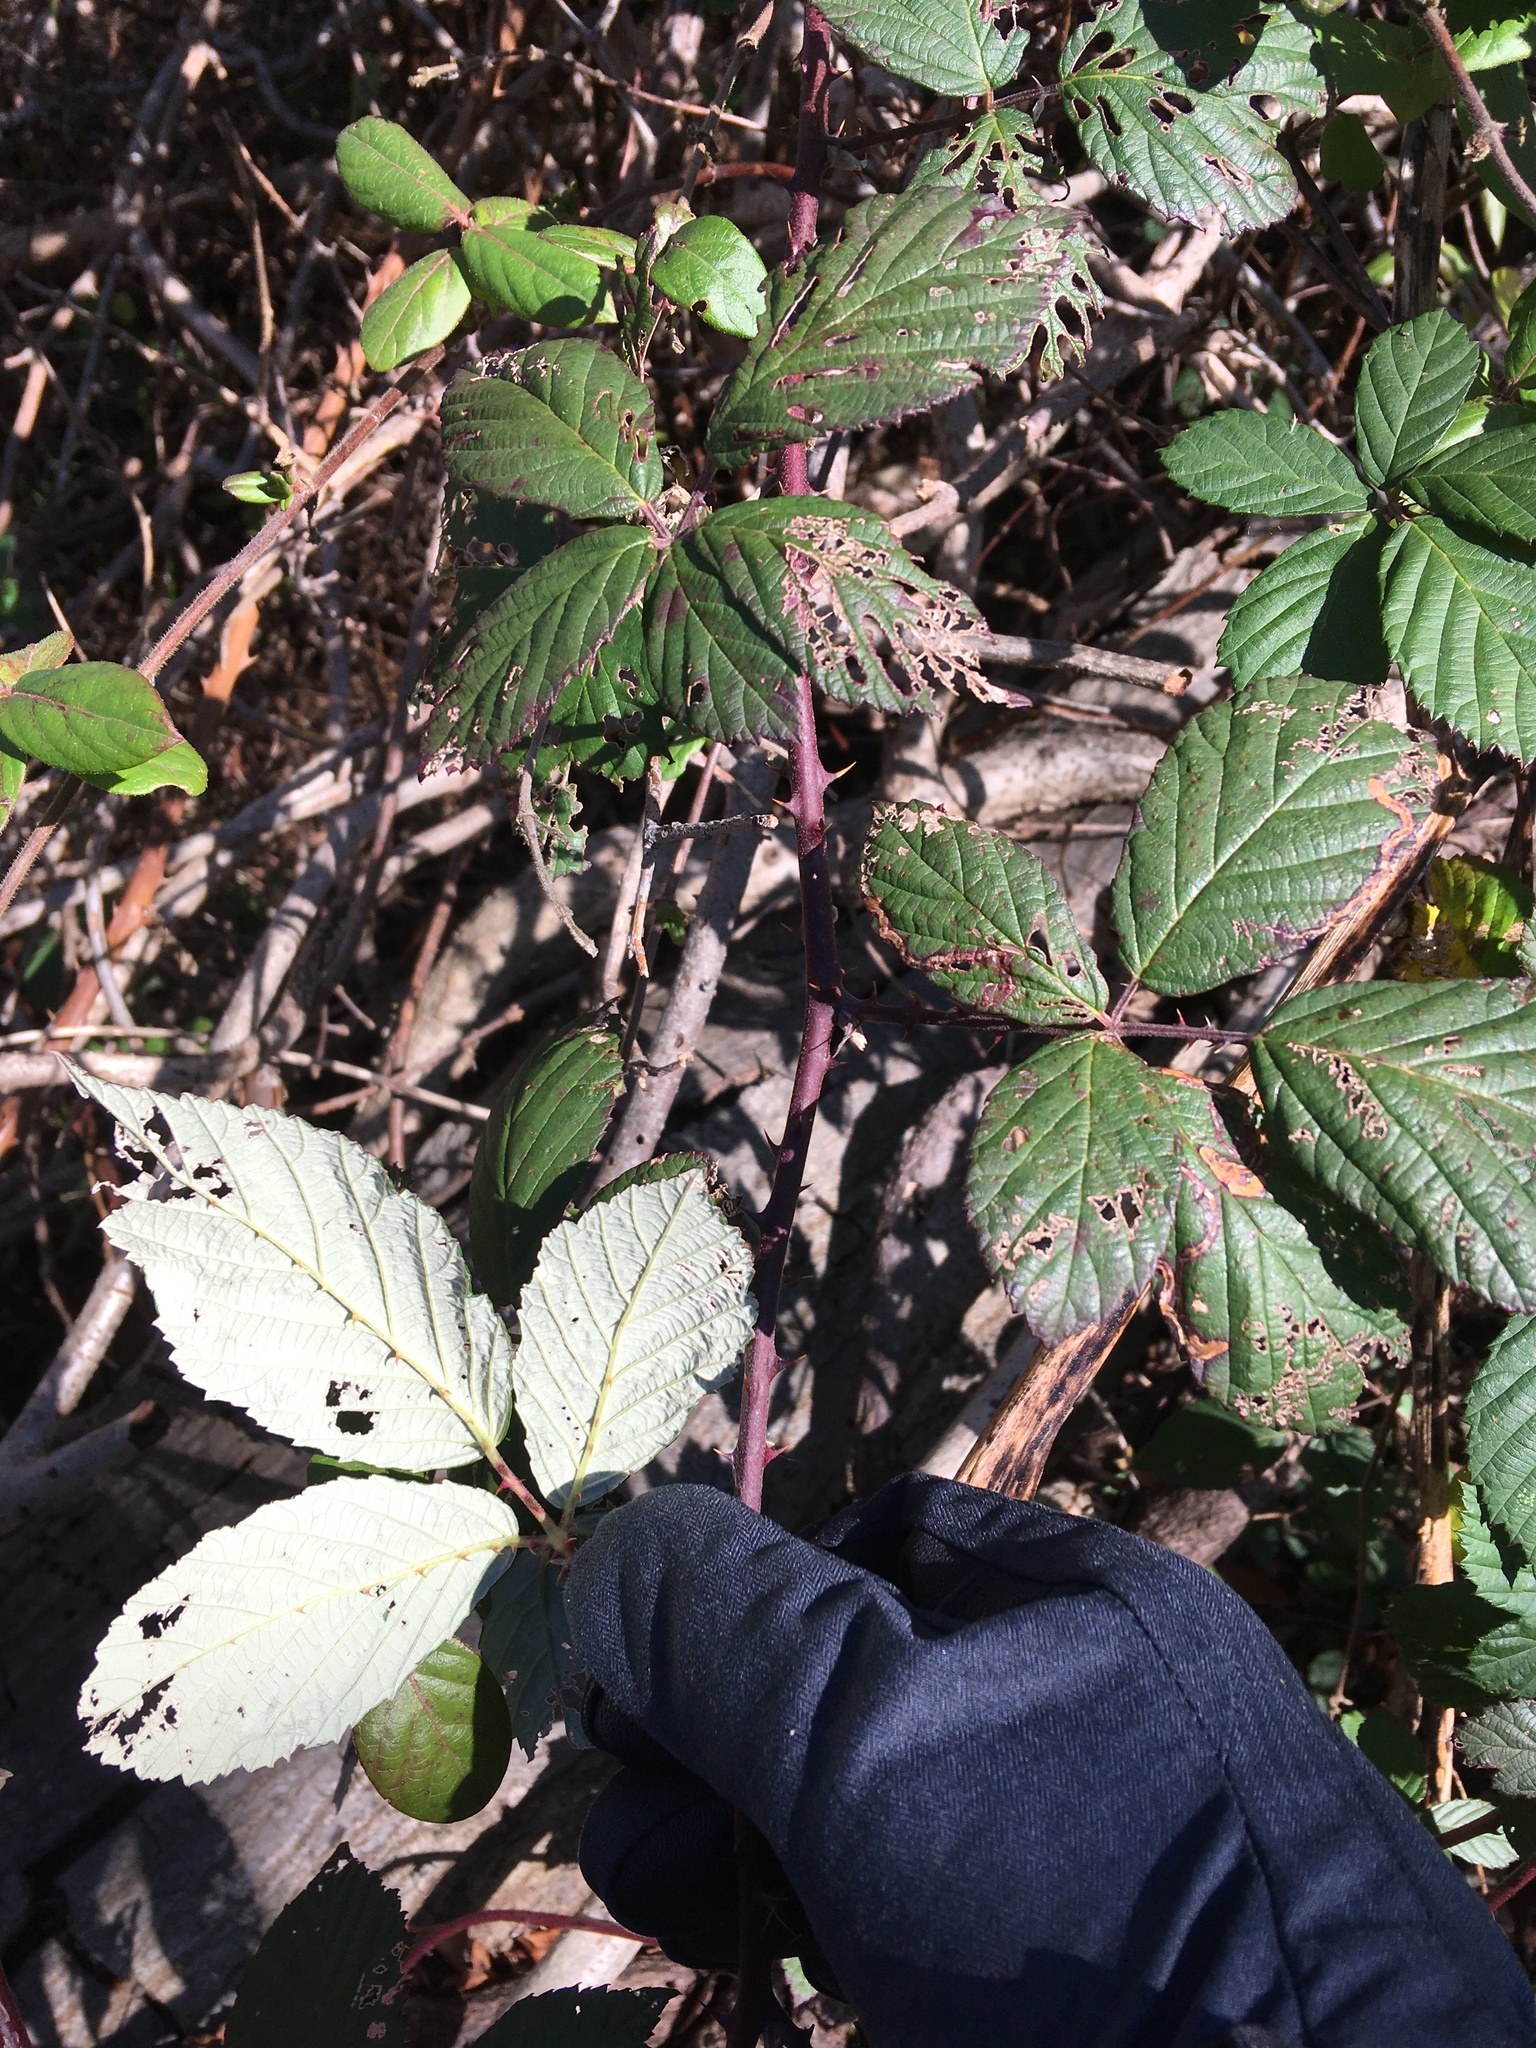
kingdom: Plantae
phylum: Tracheophyta
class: Magnoliopsida
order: Rosales
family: Rosaceae
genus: Rubus
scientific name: Rubus bifrons
